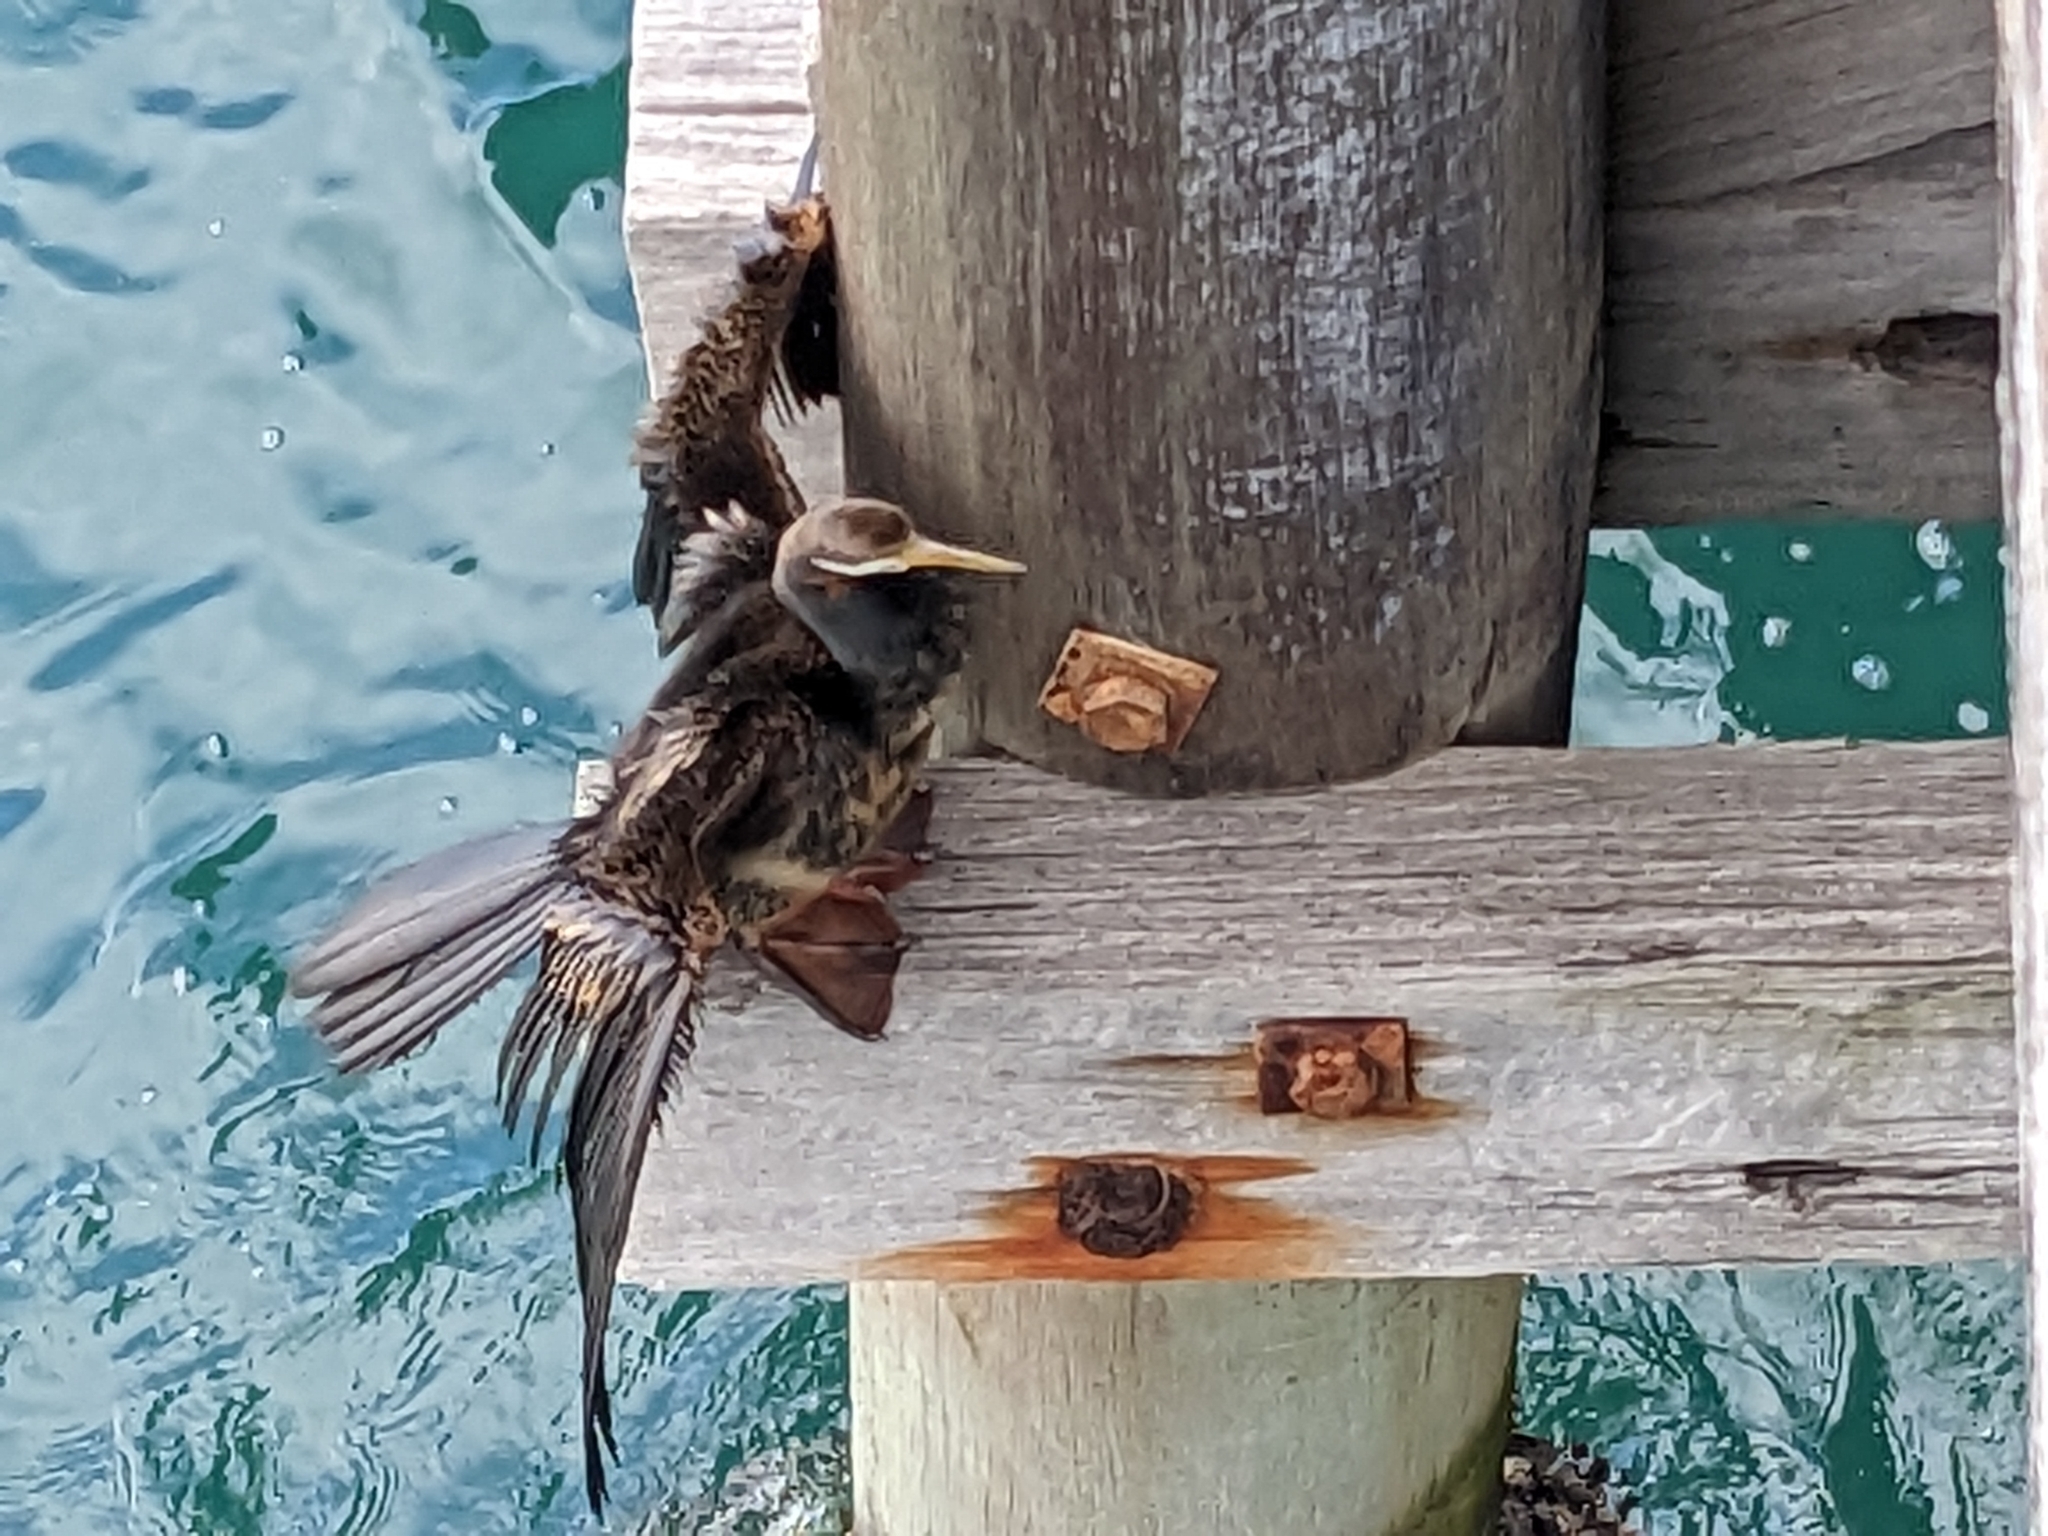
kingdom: Animalia
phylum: Chordata
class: Aves
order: Suliformes
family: Anhingidae
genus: Anhinga
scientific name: Anhinga novaehollandiae
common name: Australasian darter
